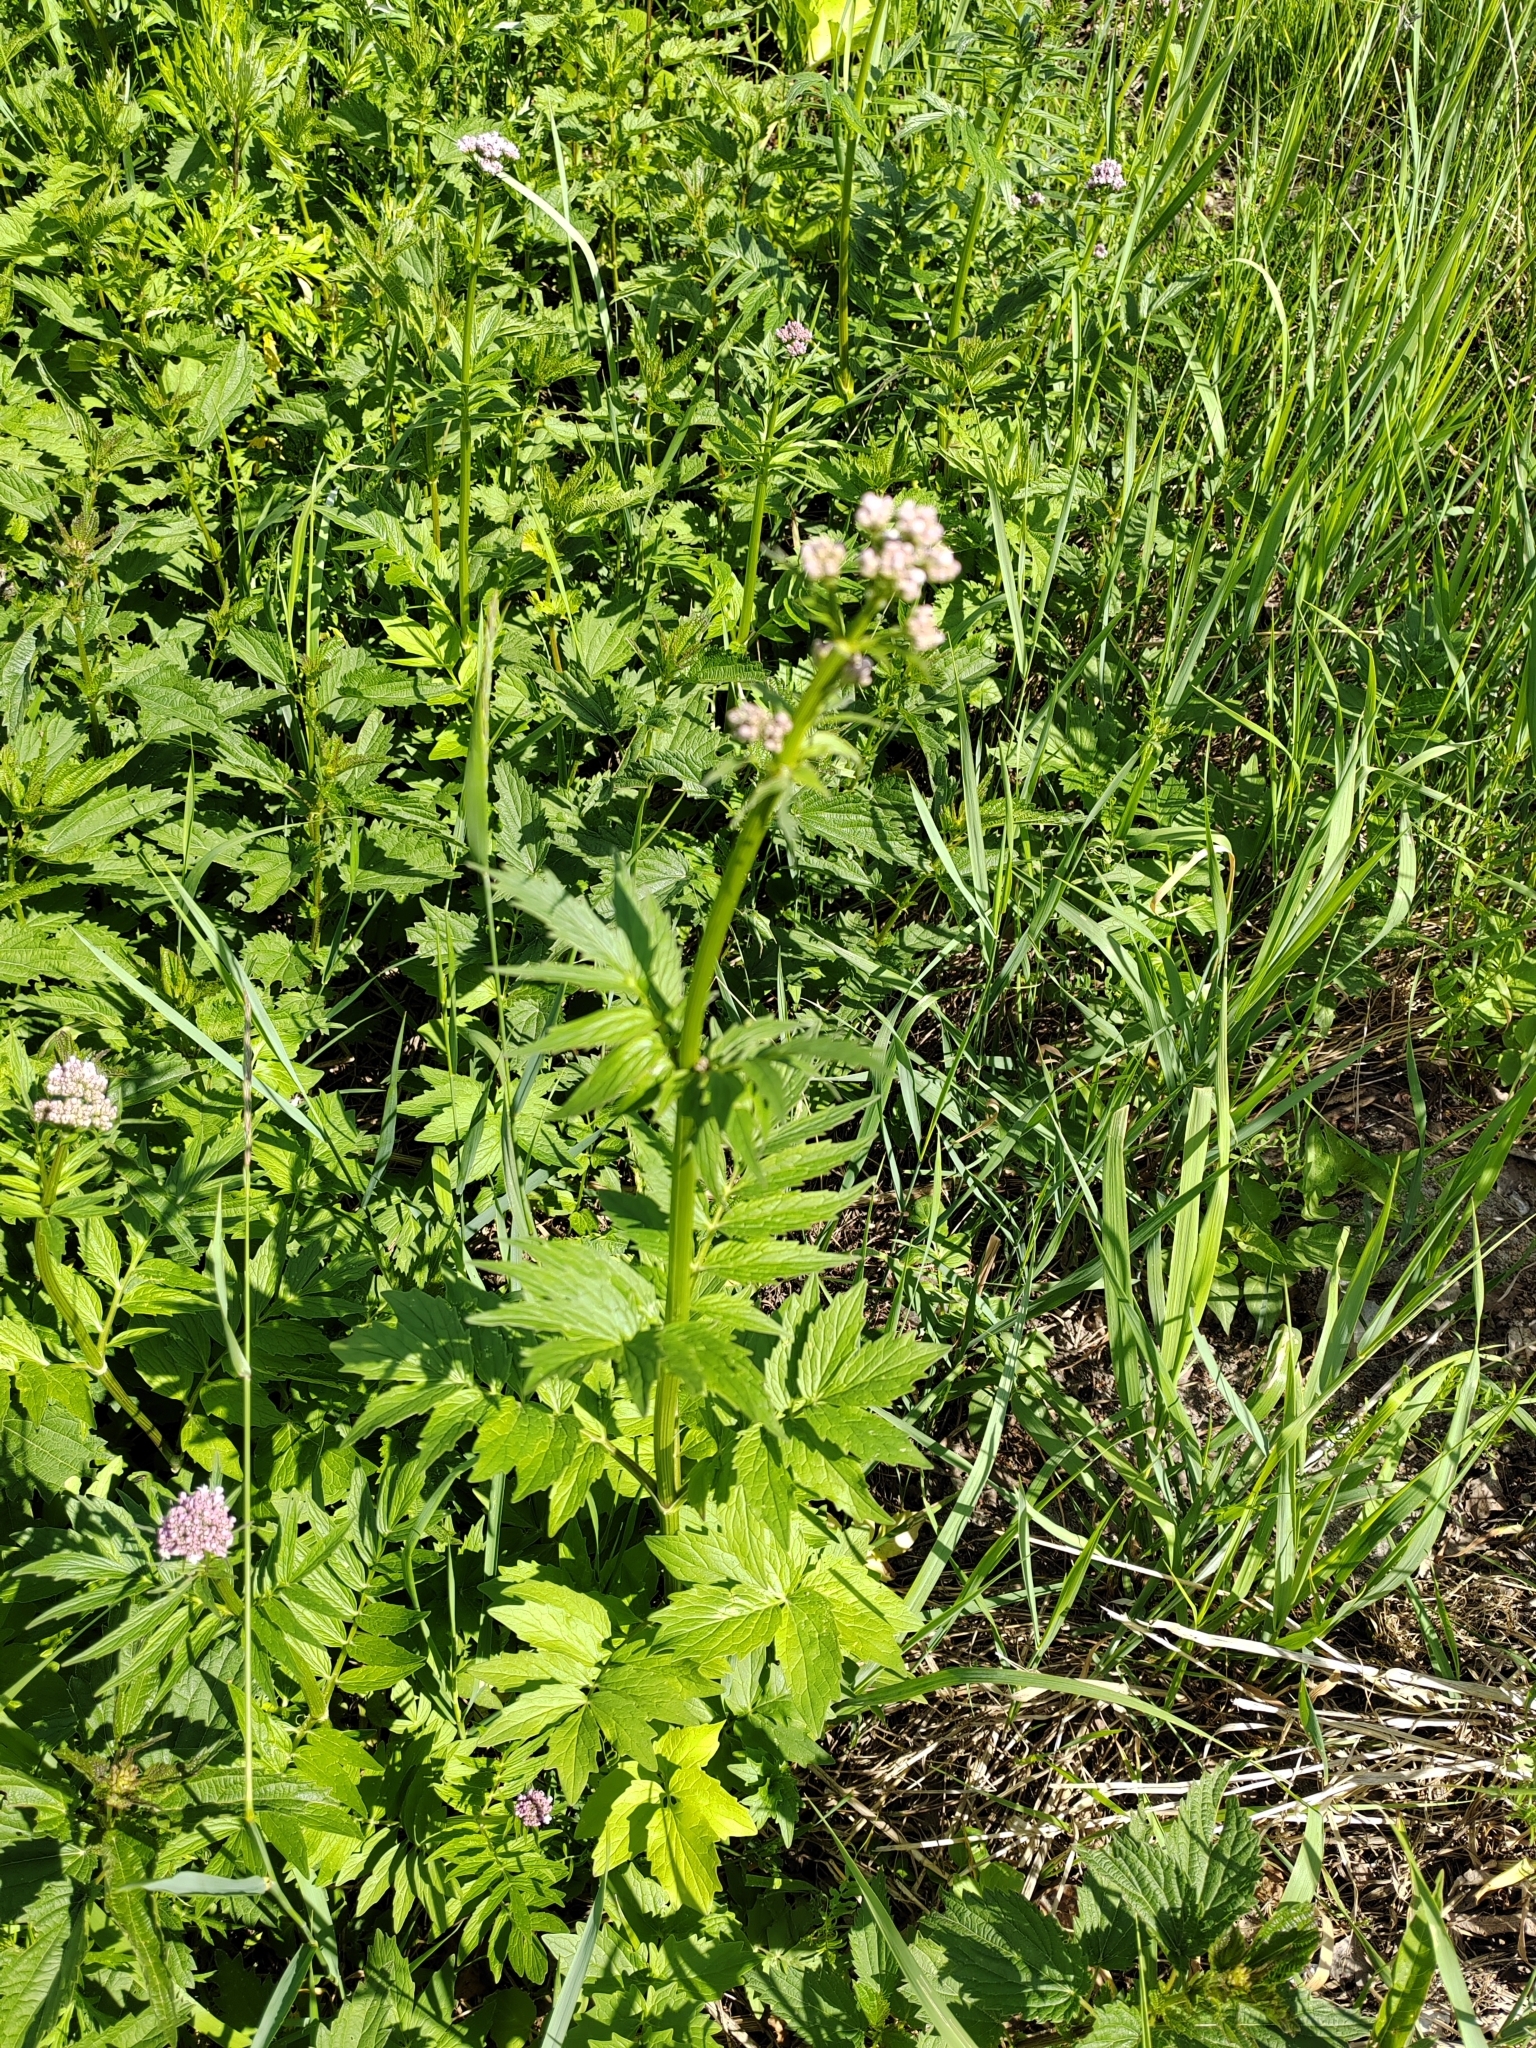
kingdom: Plantae
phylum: Tracheophyta
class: Magnoliopsida
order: Dipsacales
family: Caprifoliaceae
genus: Valeriana
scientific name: Valeriana wolgensis
